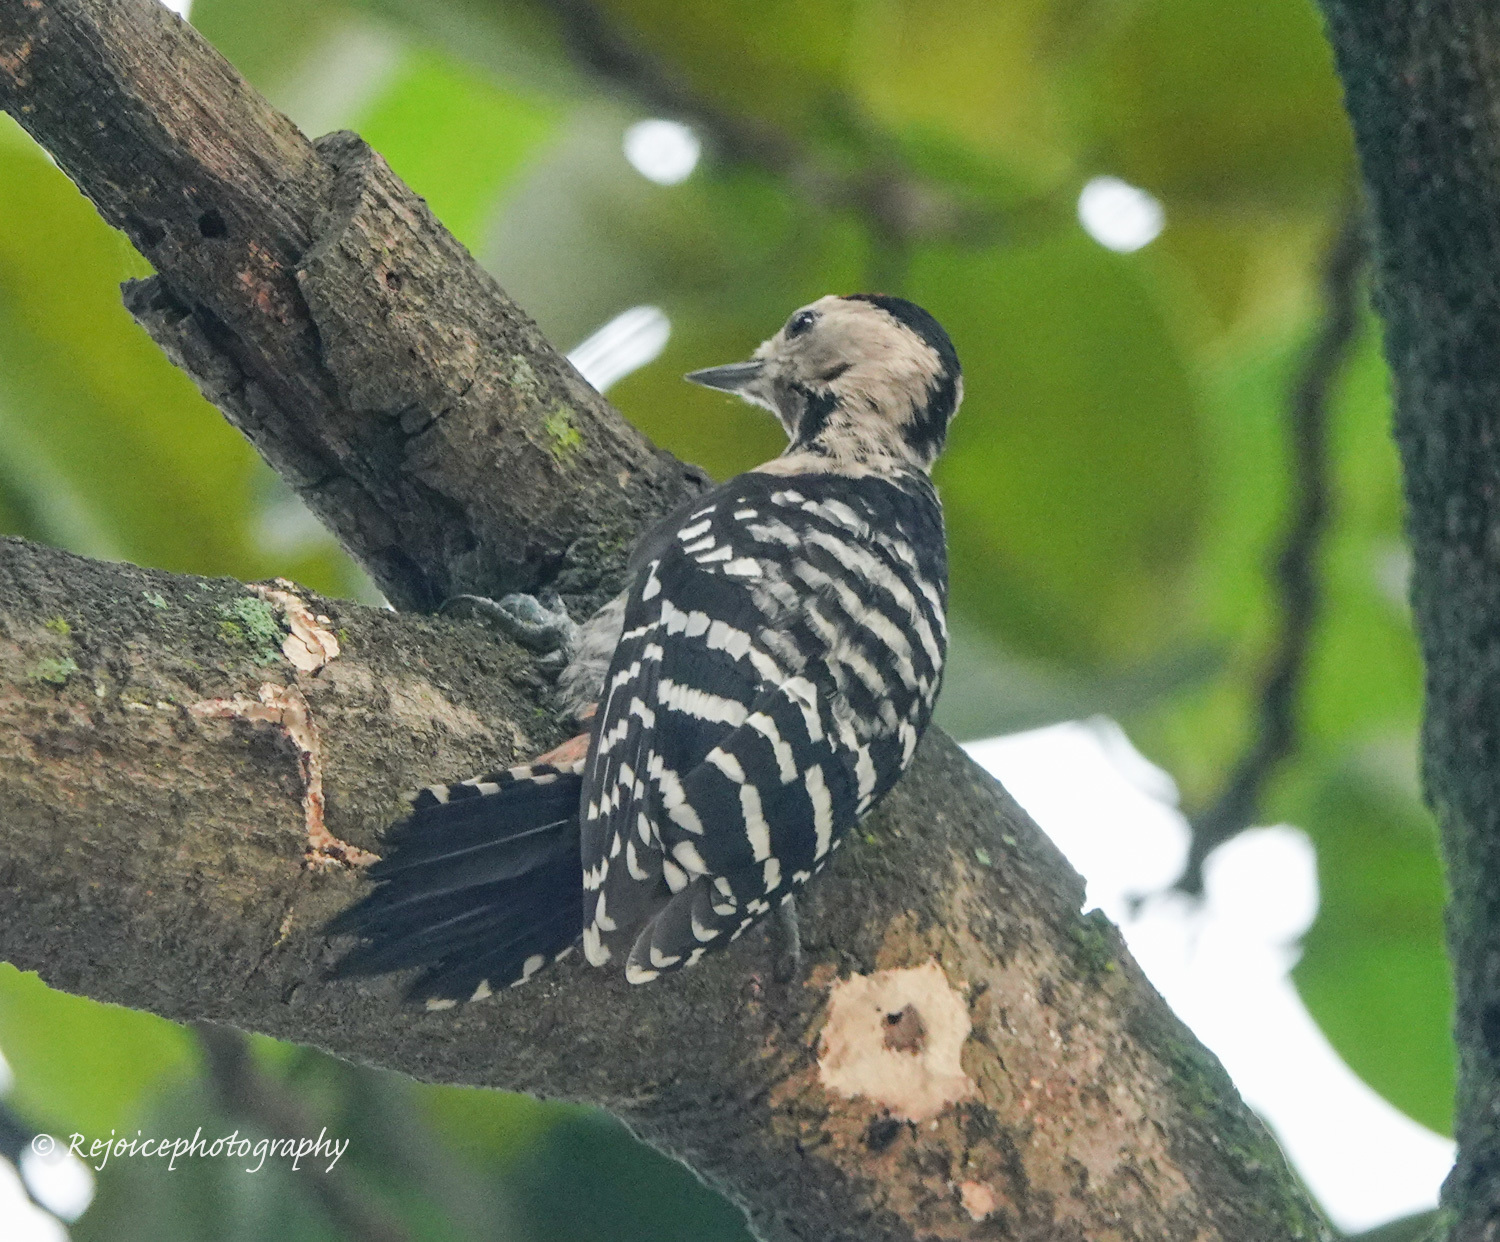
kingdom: Animalia
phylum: Chordata
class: Aves
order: Piciformes
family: Picidae
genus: Dendrocopos
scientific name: Dendrocopos macei
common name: Fulvous-breasted woodpecker
